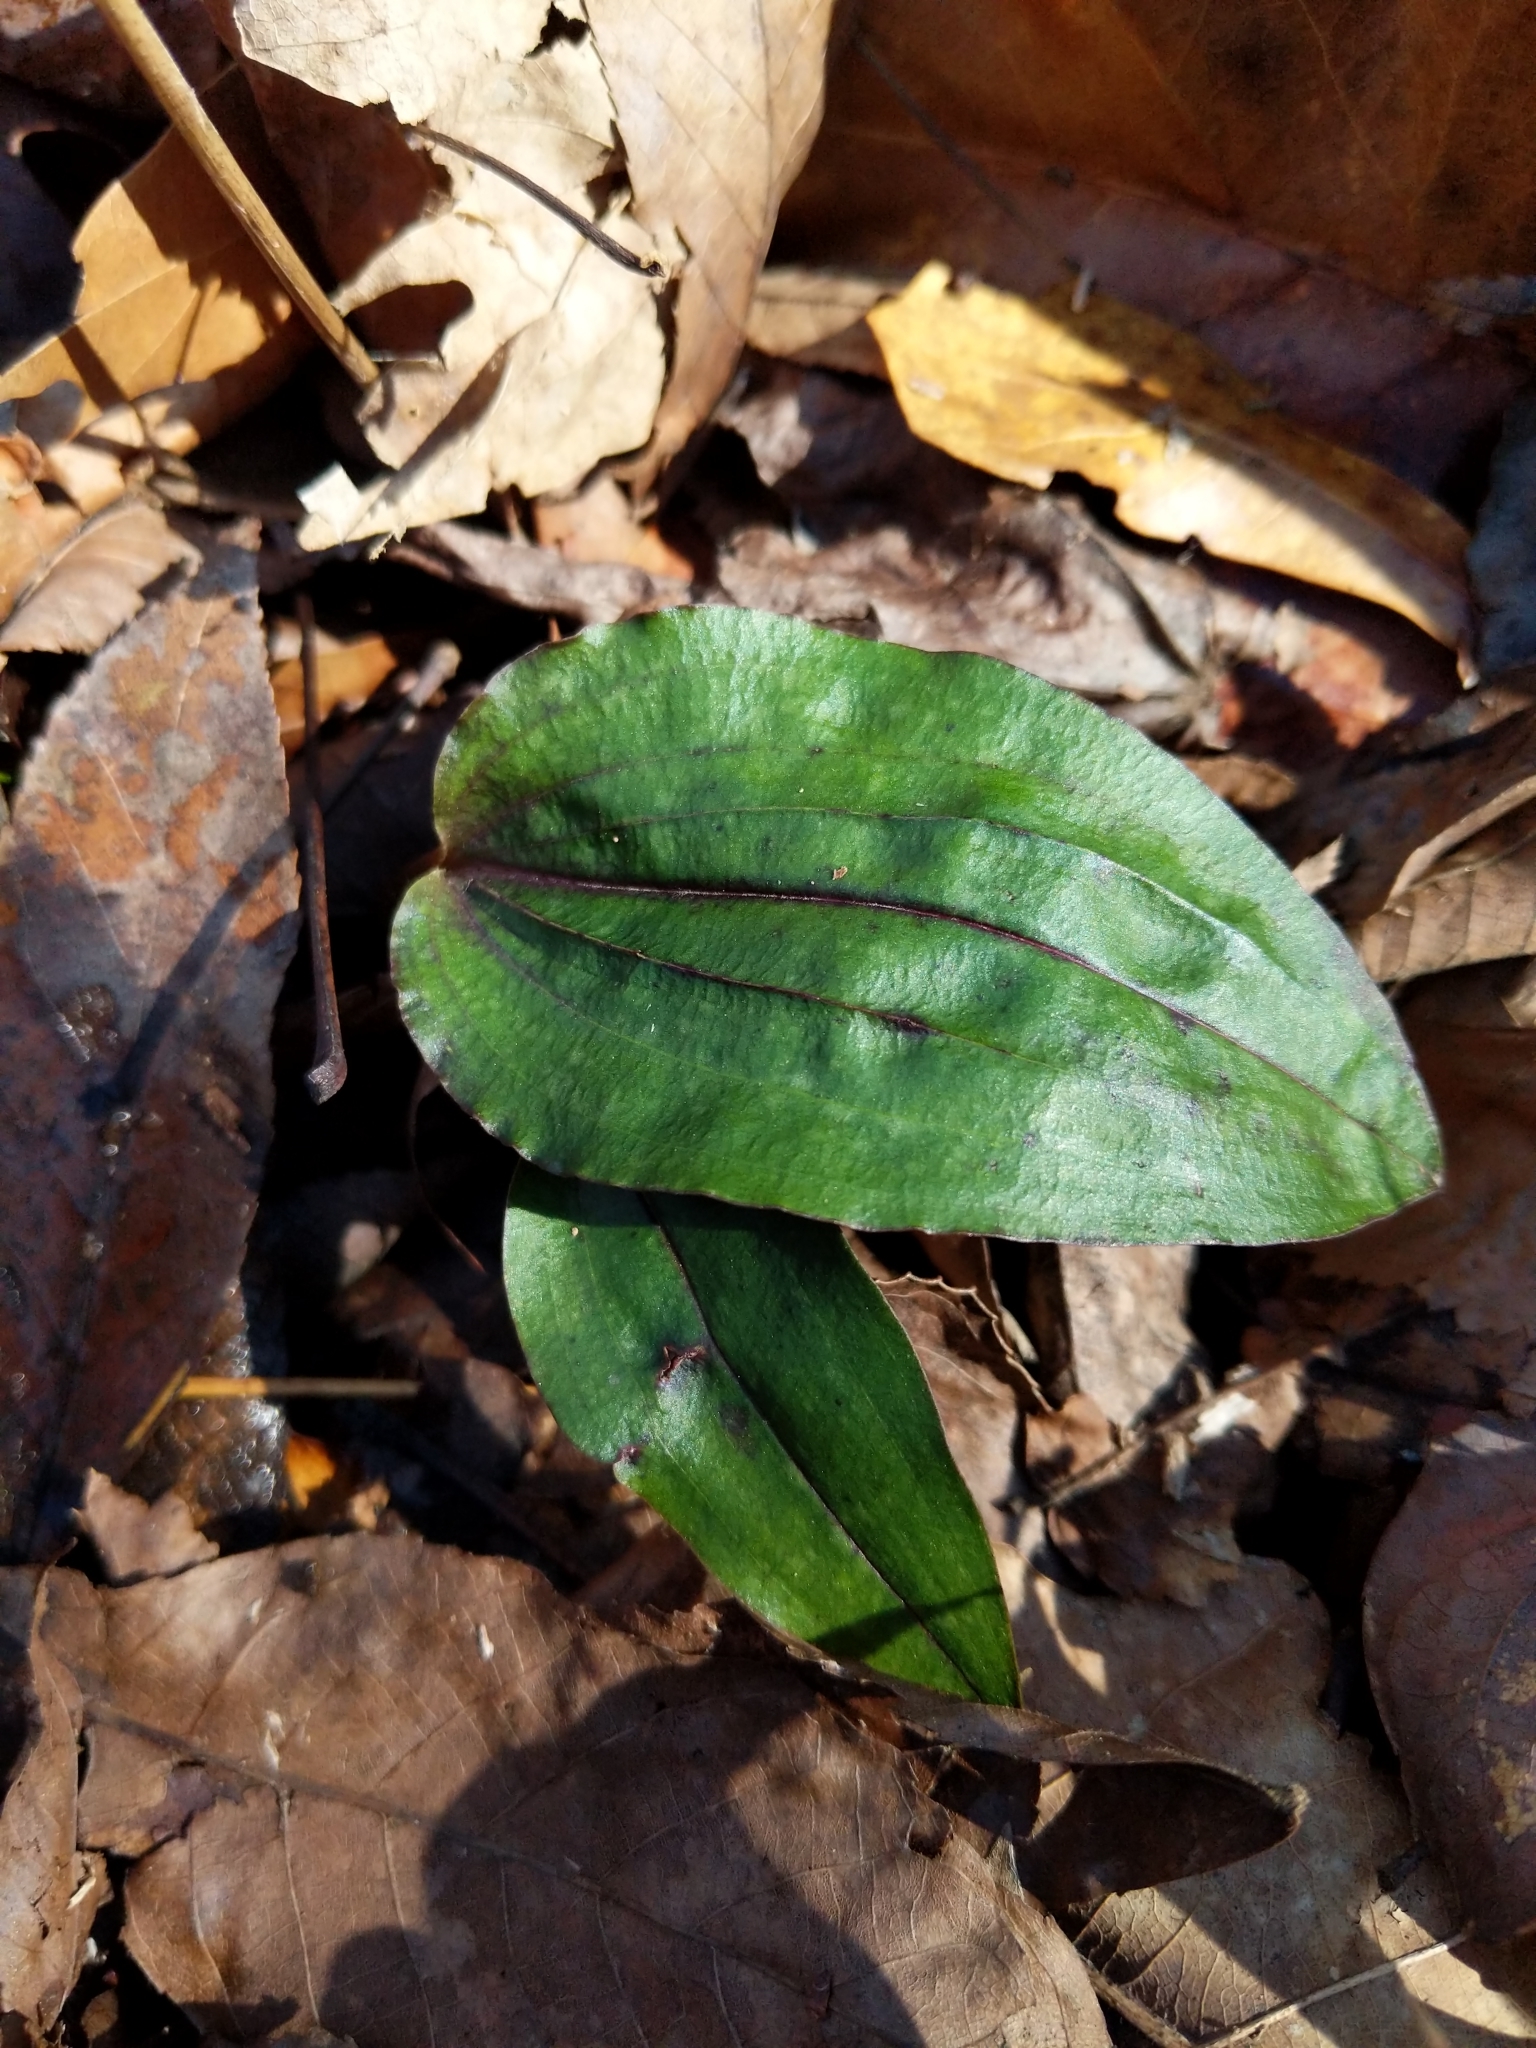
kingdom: Plantae
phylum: Tracheophyta
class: Liliopsida
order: Asparagales
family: Orchidaceae
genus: Tipularia
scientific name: Tipularia discolor
